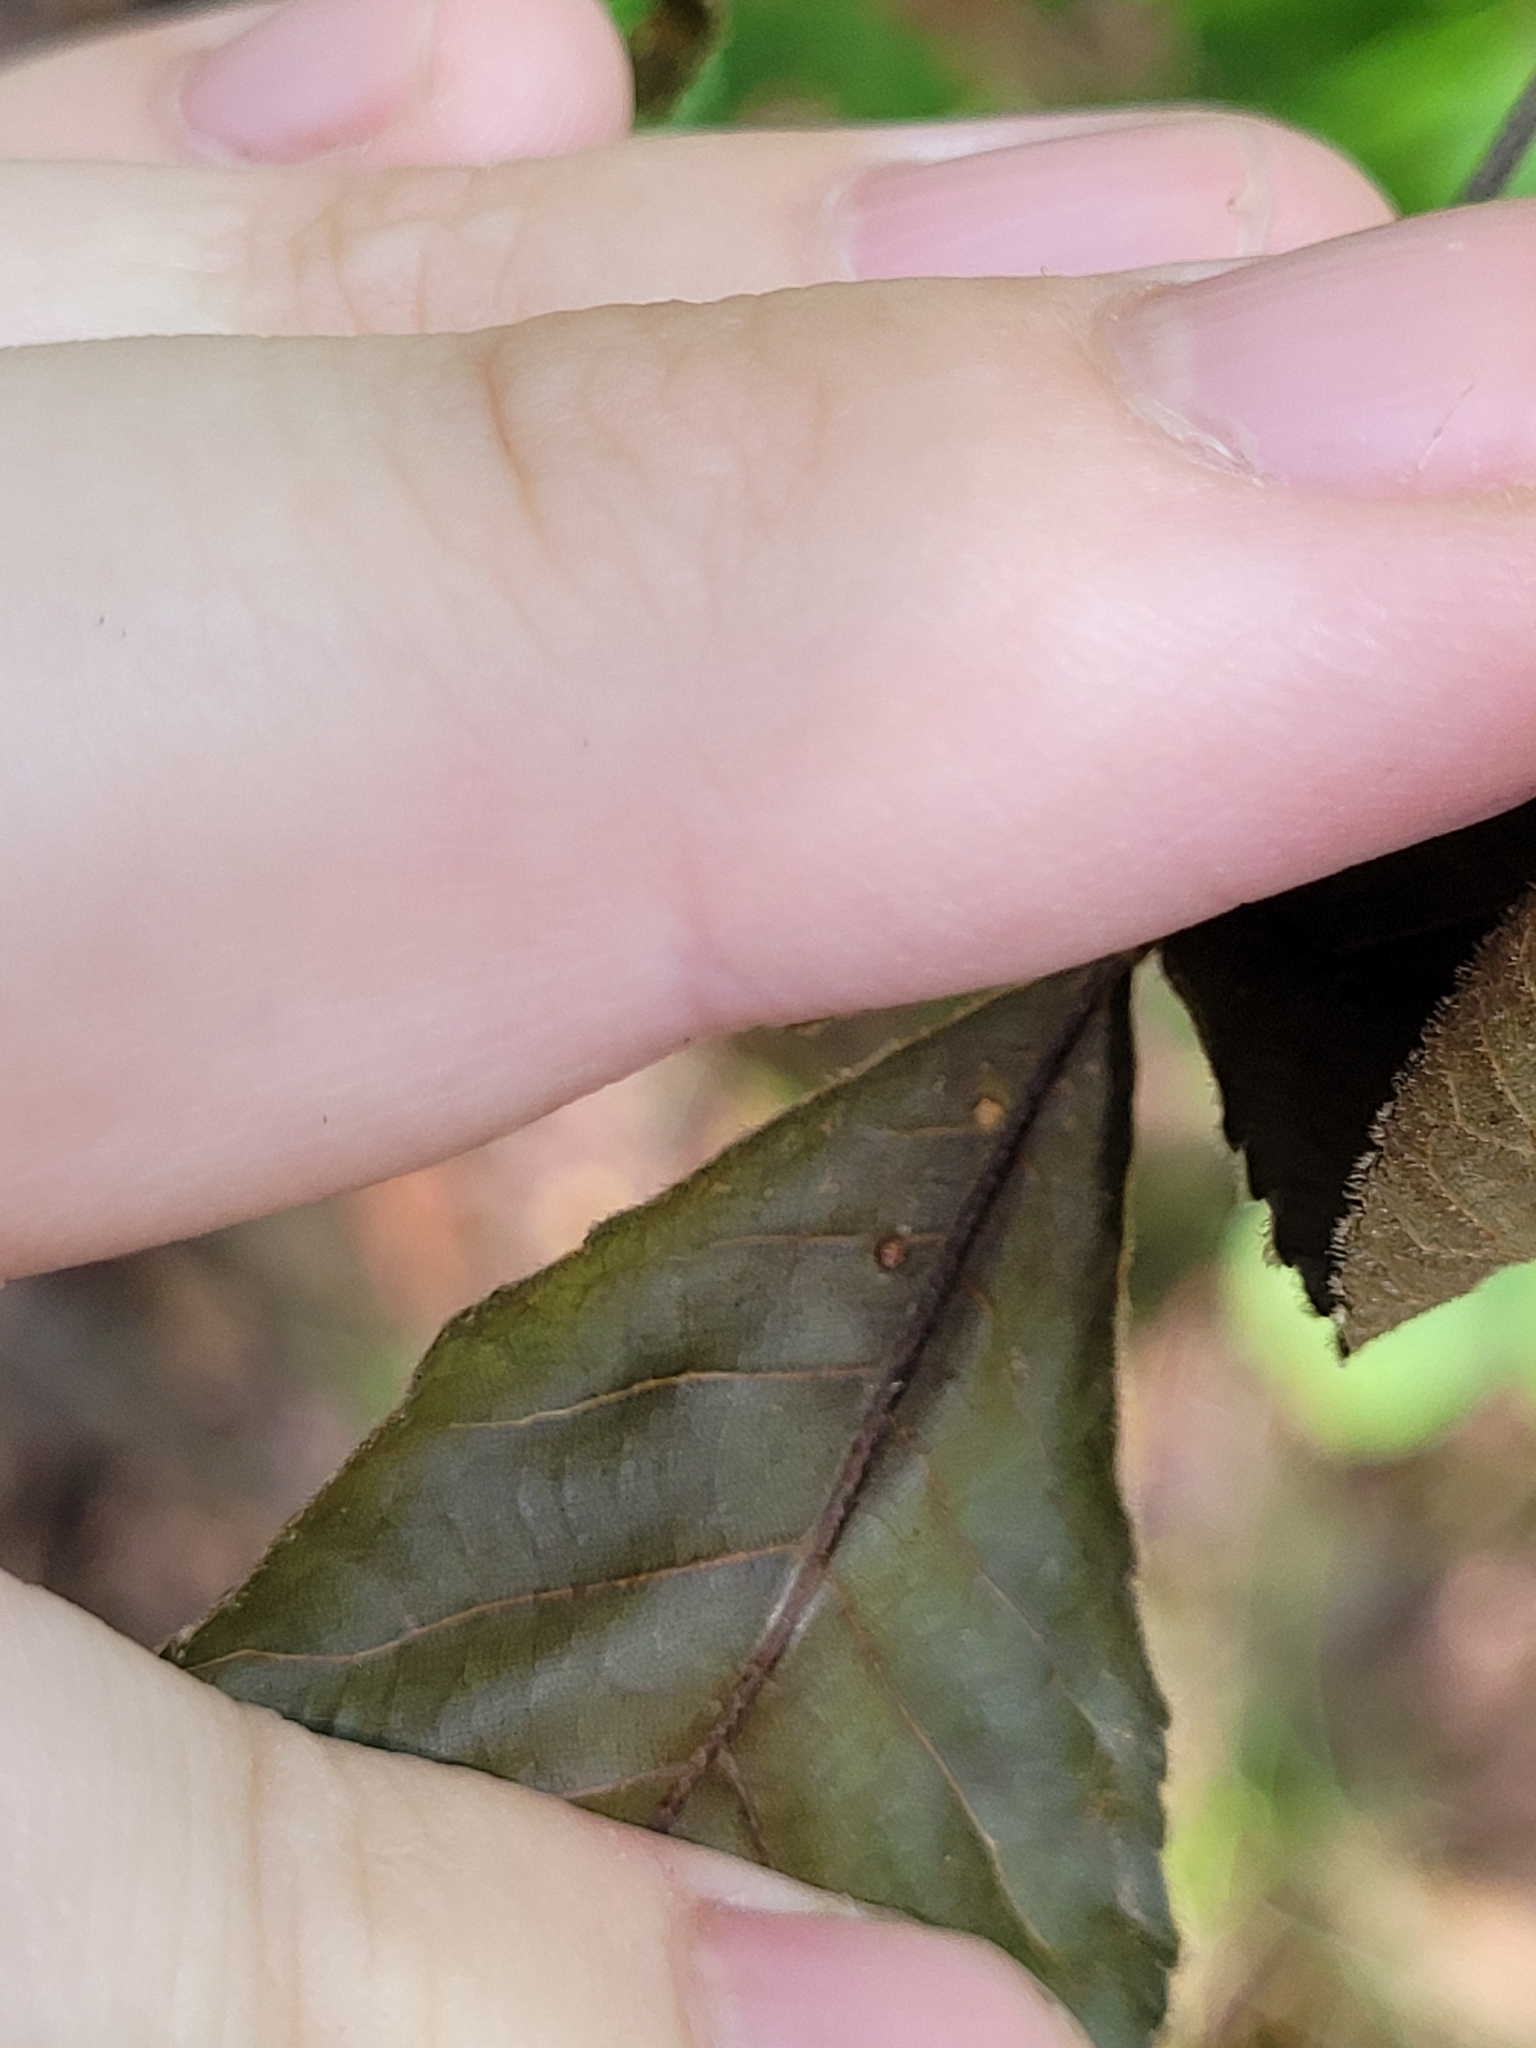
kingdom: Animalia
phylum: Arthropoda
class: Insecta
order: Diptera
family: Cecidomyiidae
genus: Caryomyia
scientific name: Caryomyia thompsoni
